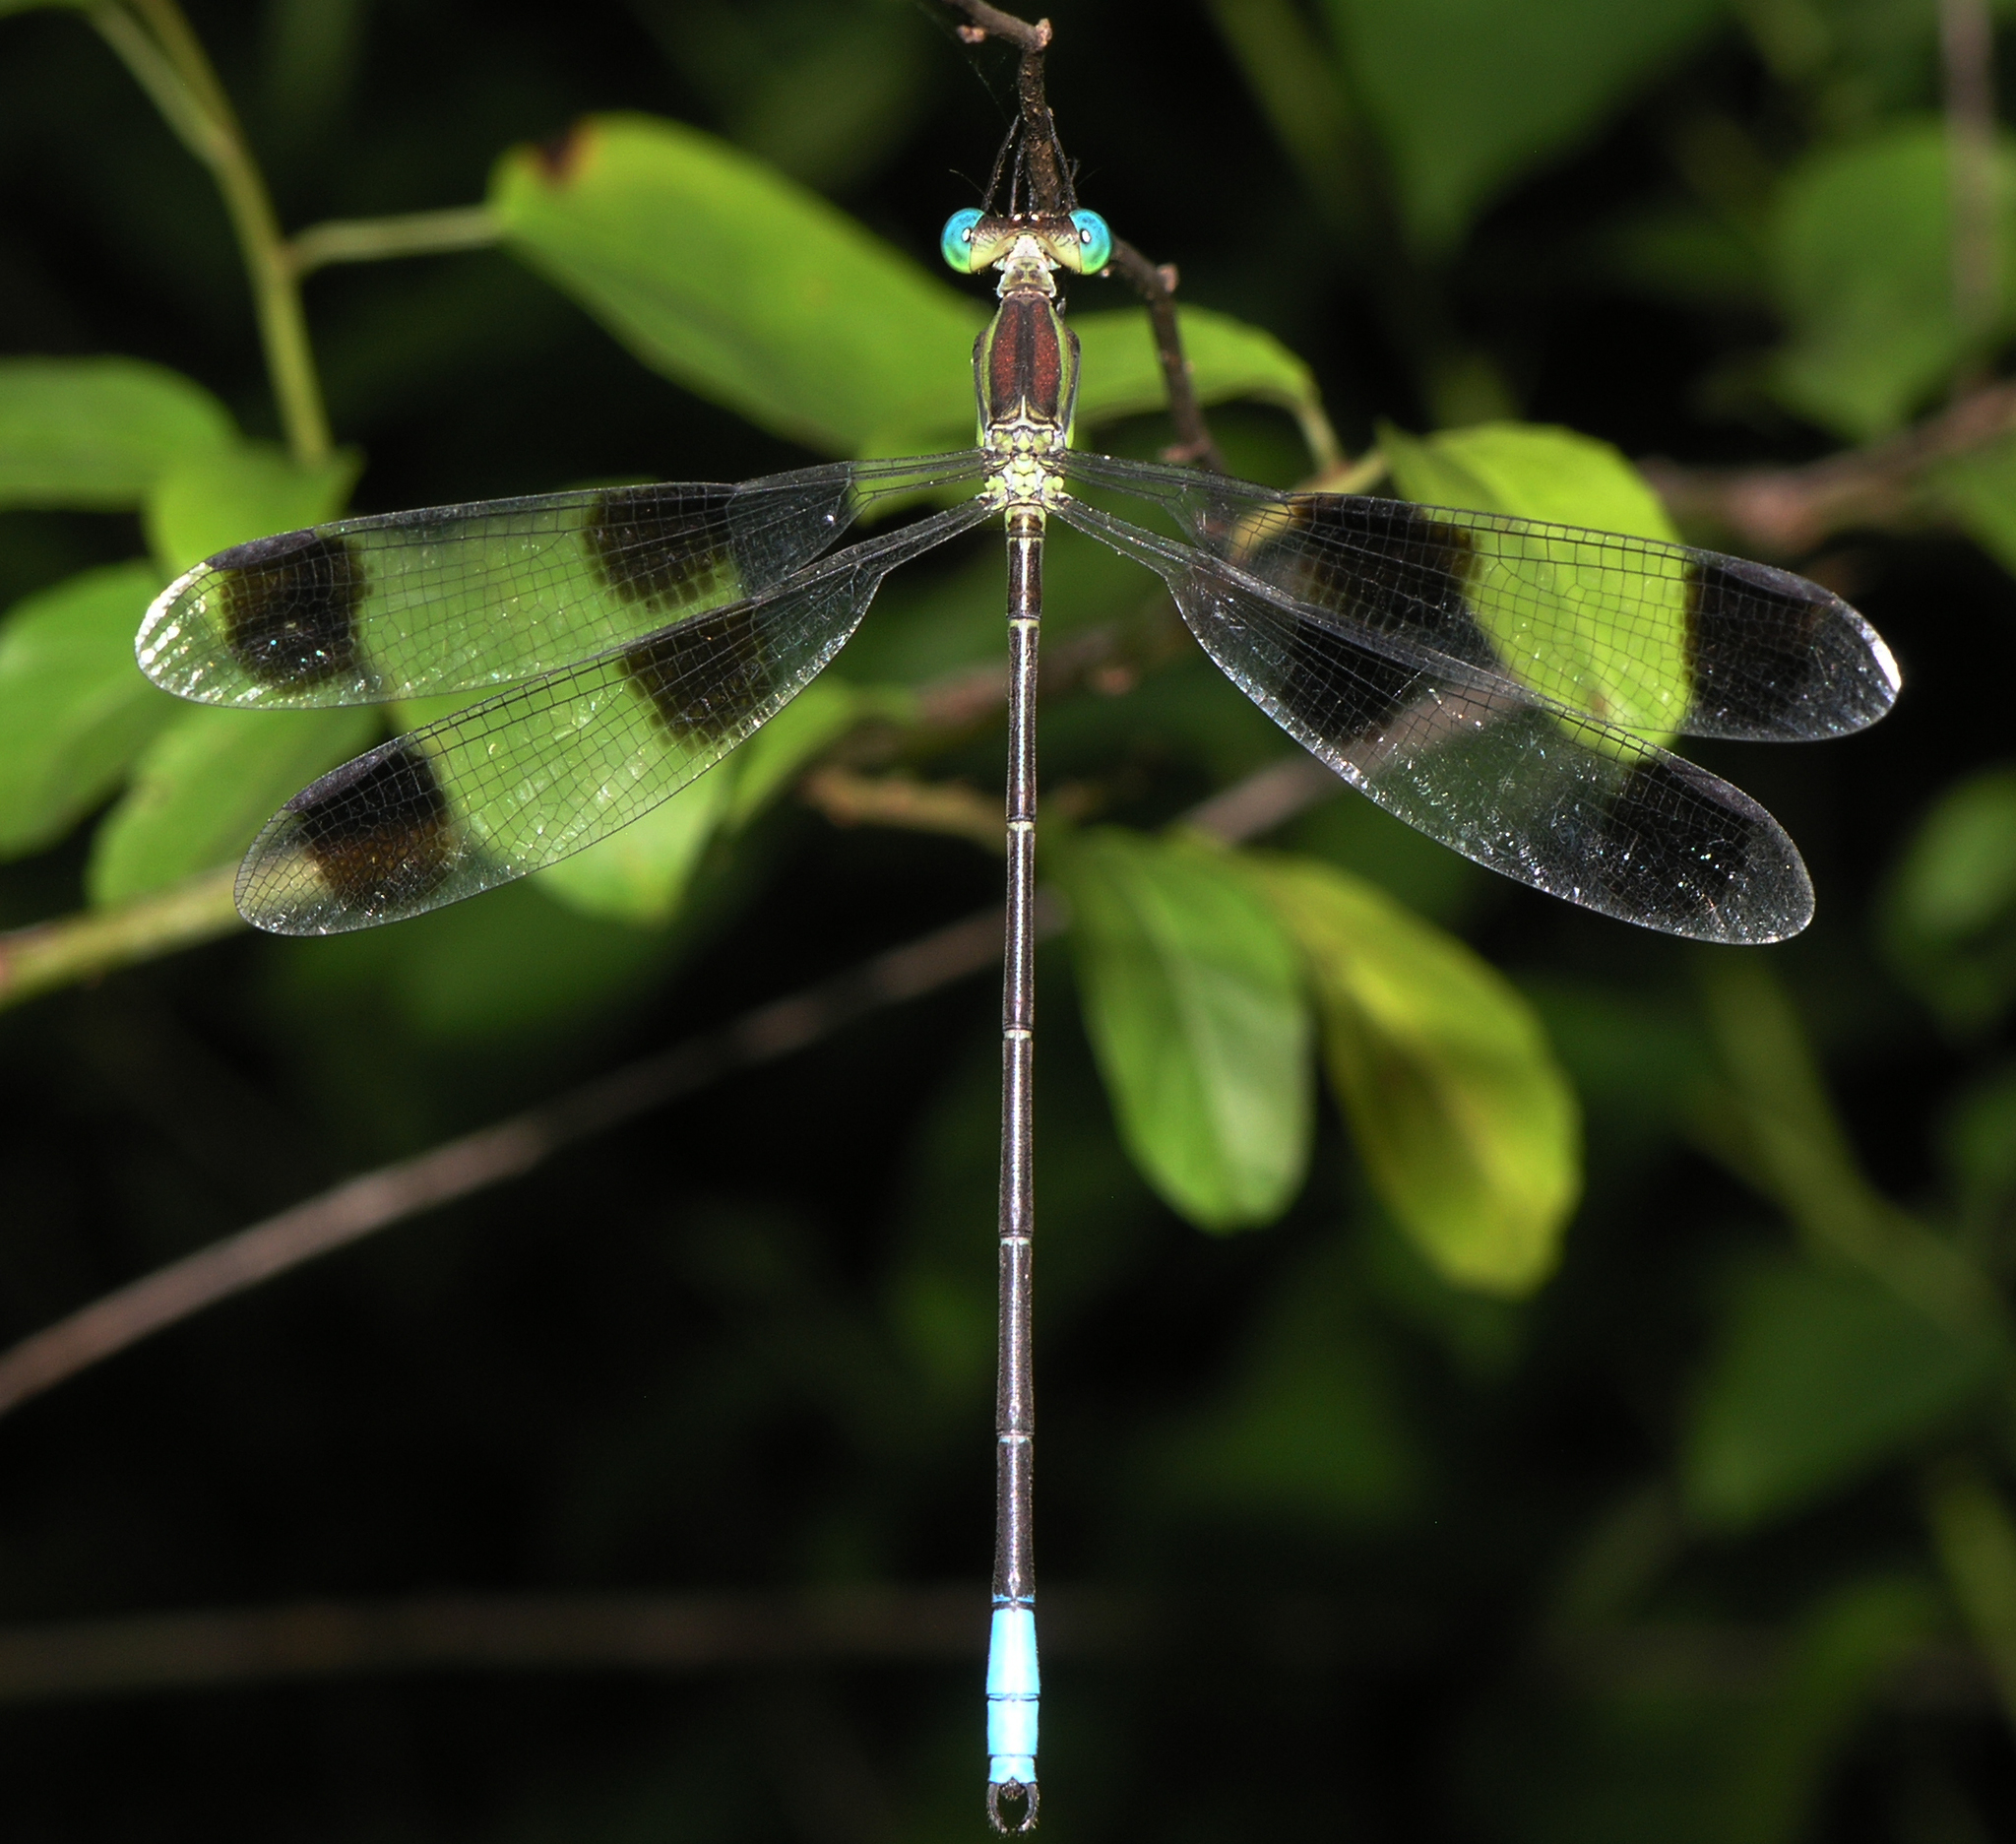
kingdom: Animalia
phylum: Arthropoda
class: Insecta
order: Odonata
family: Lestidae
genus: Orolestes
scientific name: Orolestes octomaculatus
